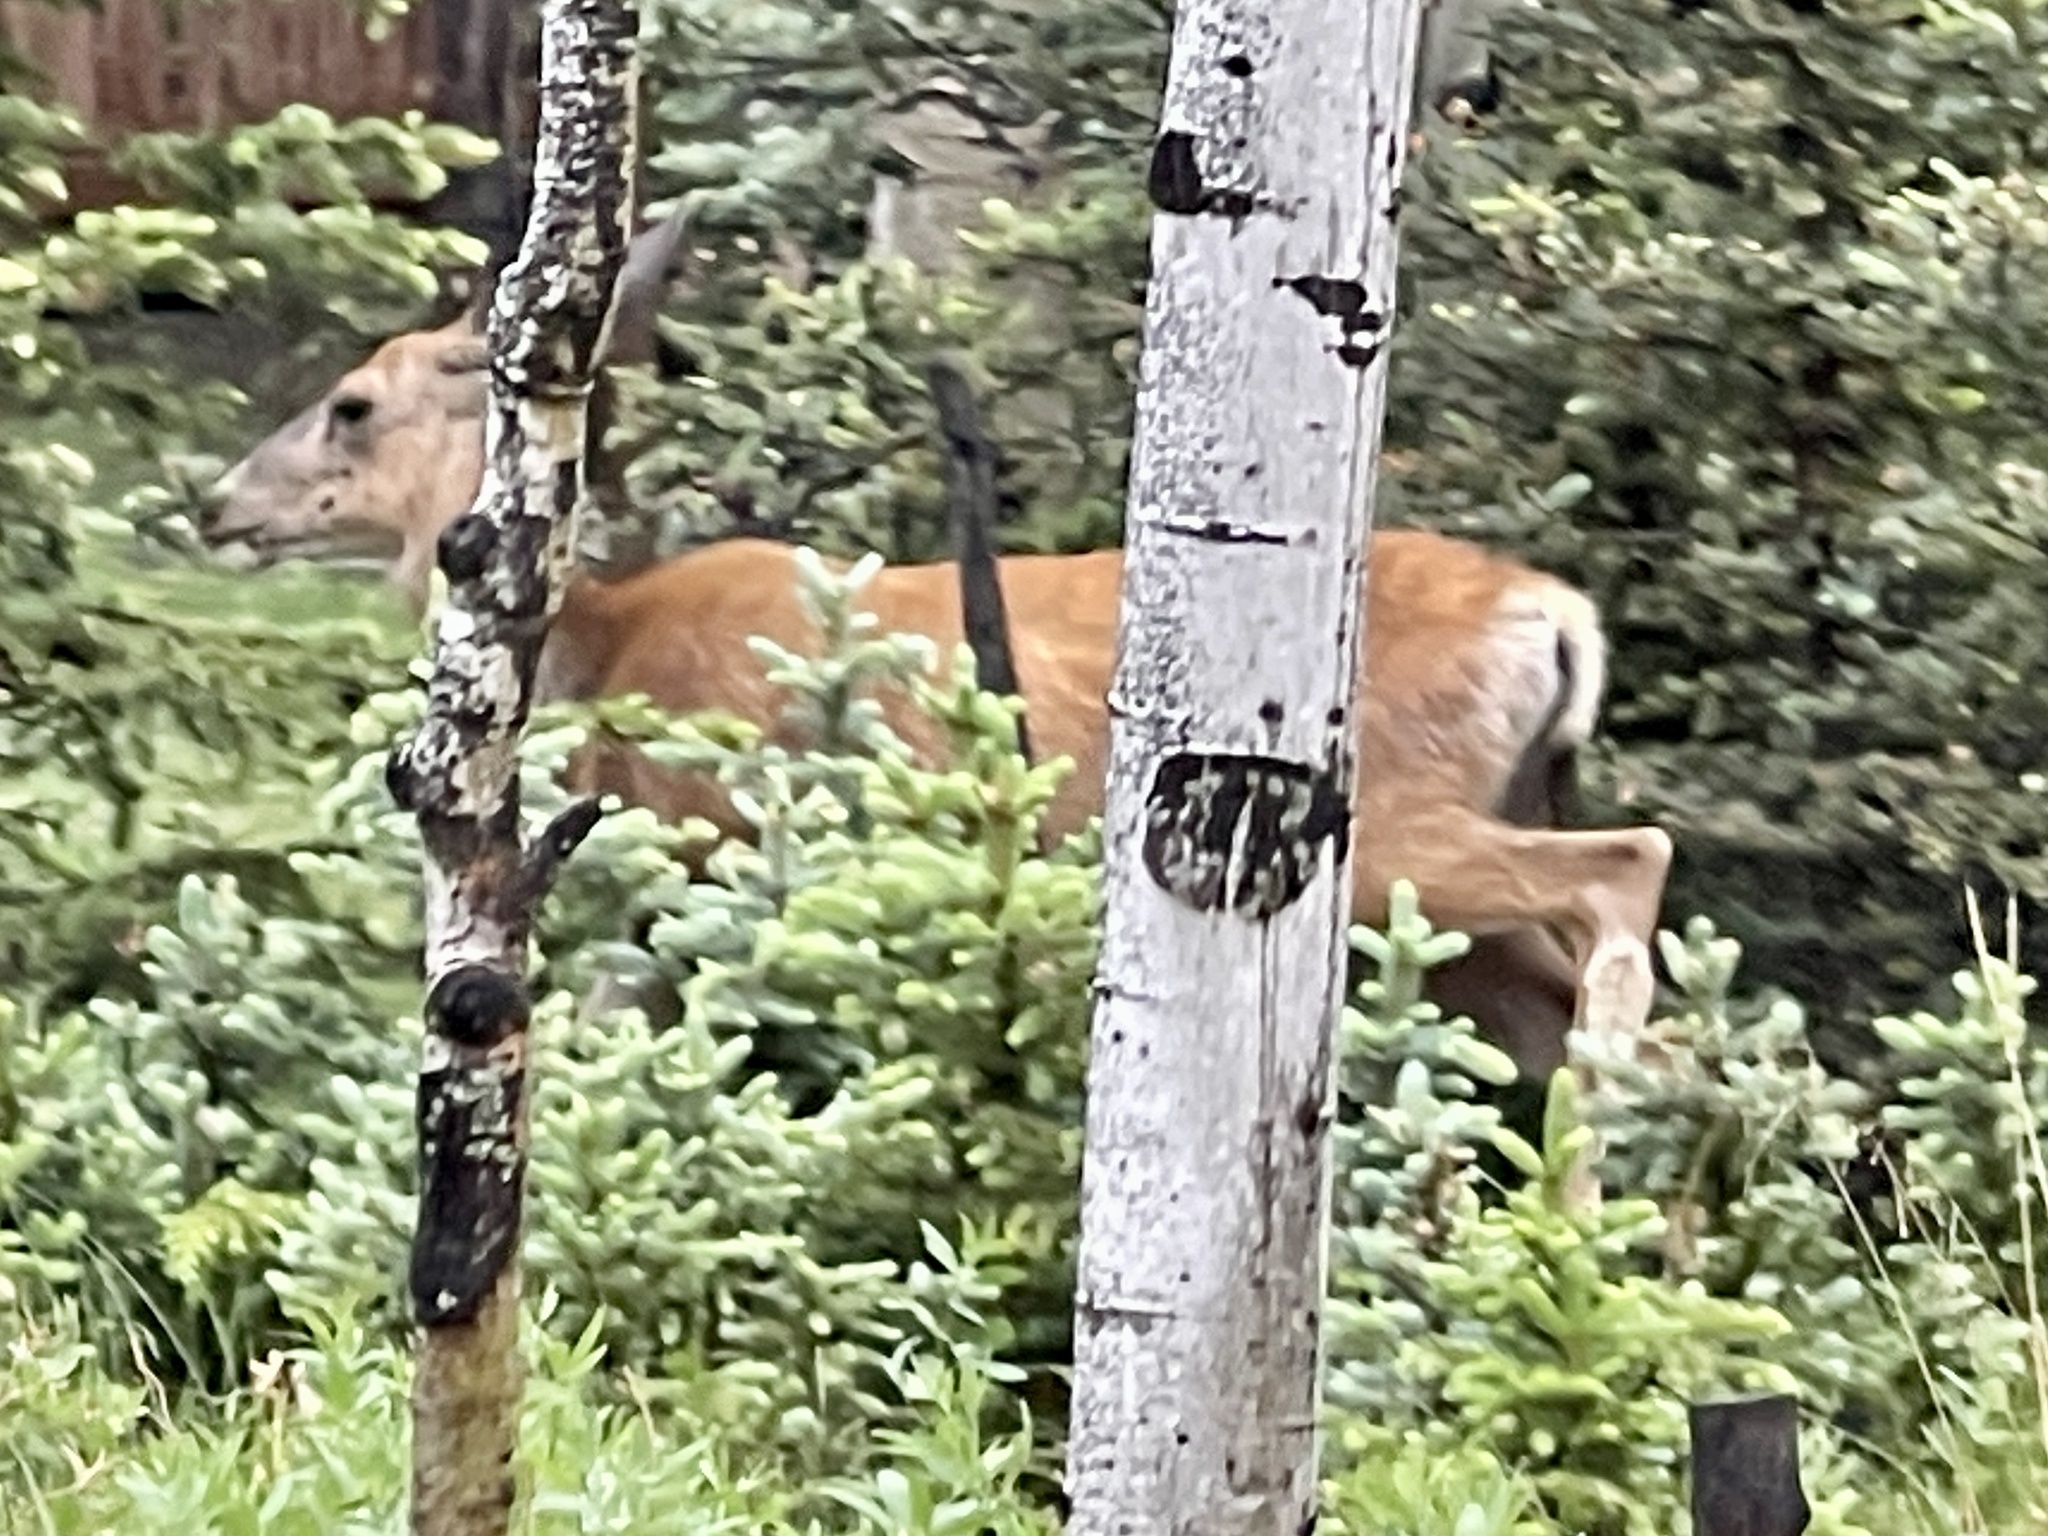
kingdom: Animalia
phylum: Chordata
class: Mammalia
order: Artiodactyla
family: Cervidae
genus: Odocoileus
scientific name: Odocoileus hemionus
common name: Mule deer
